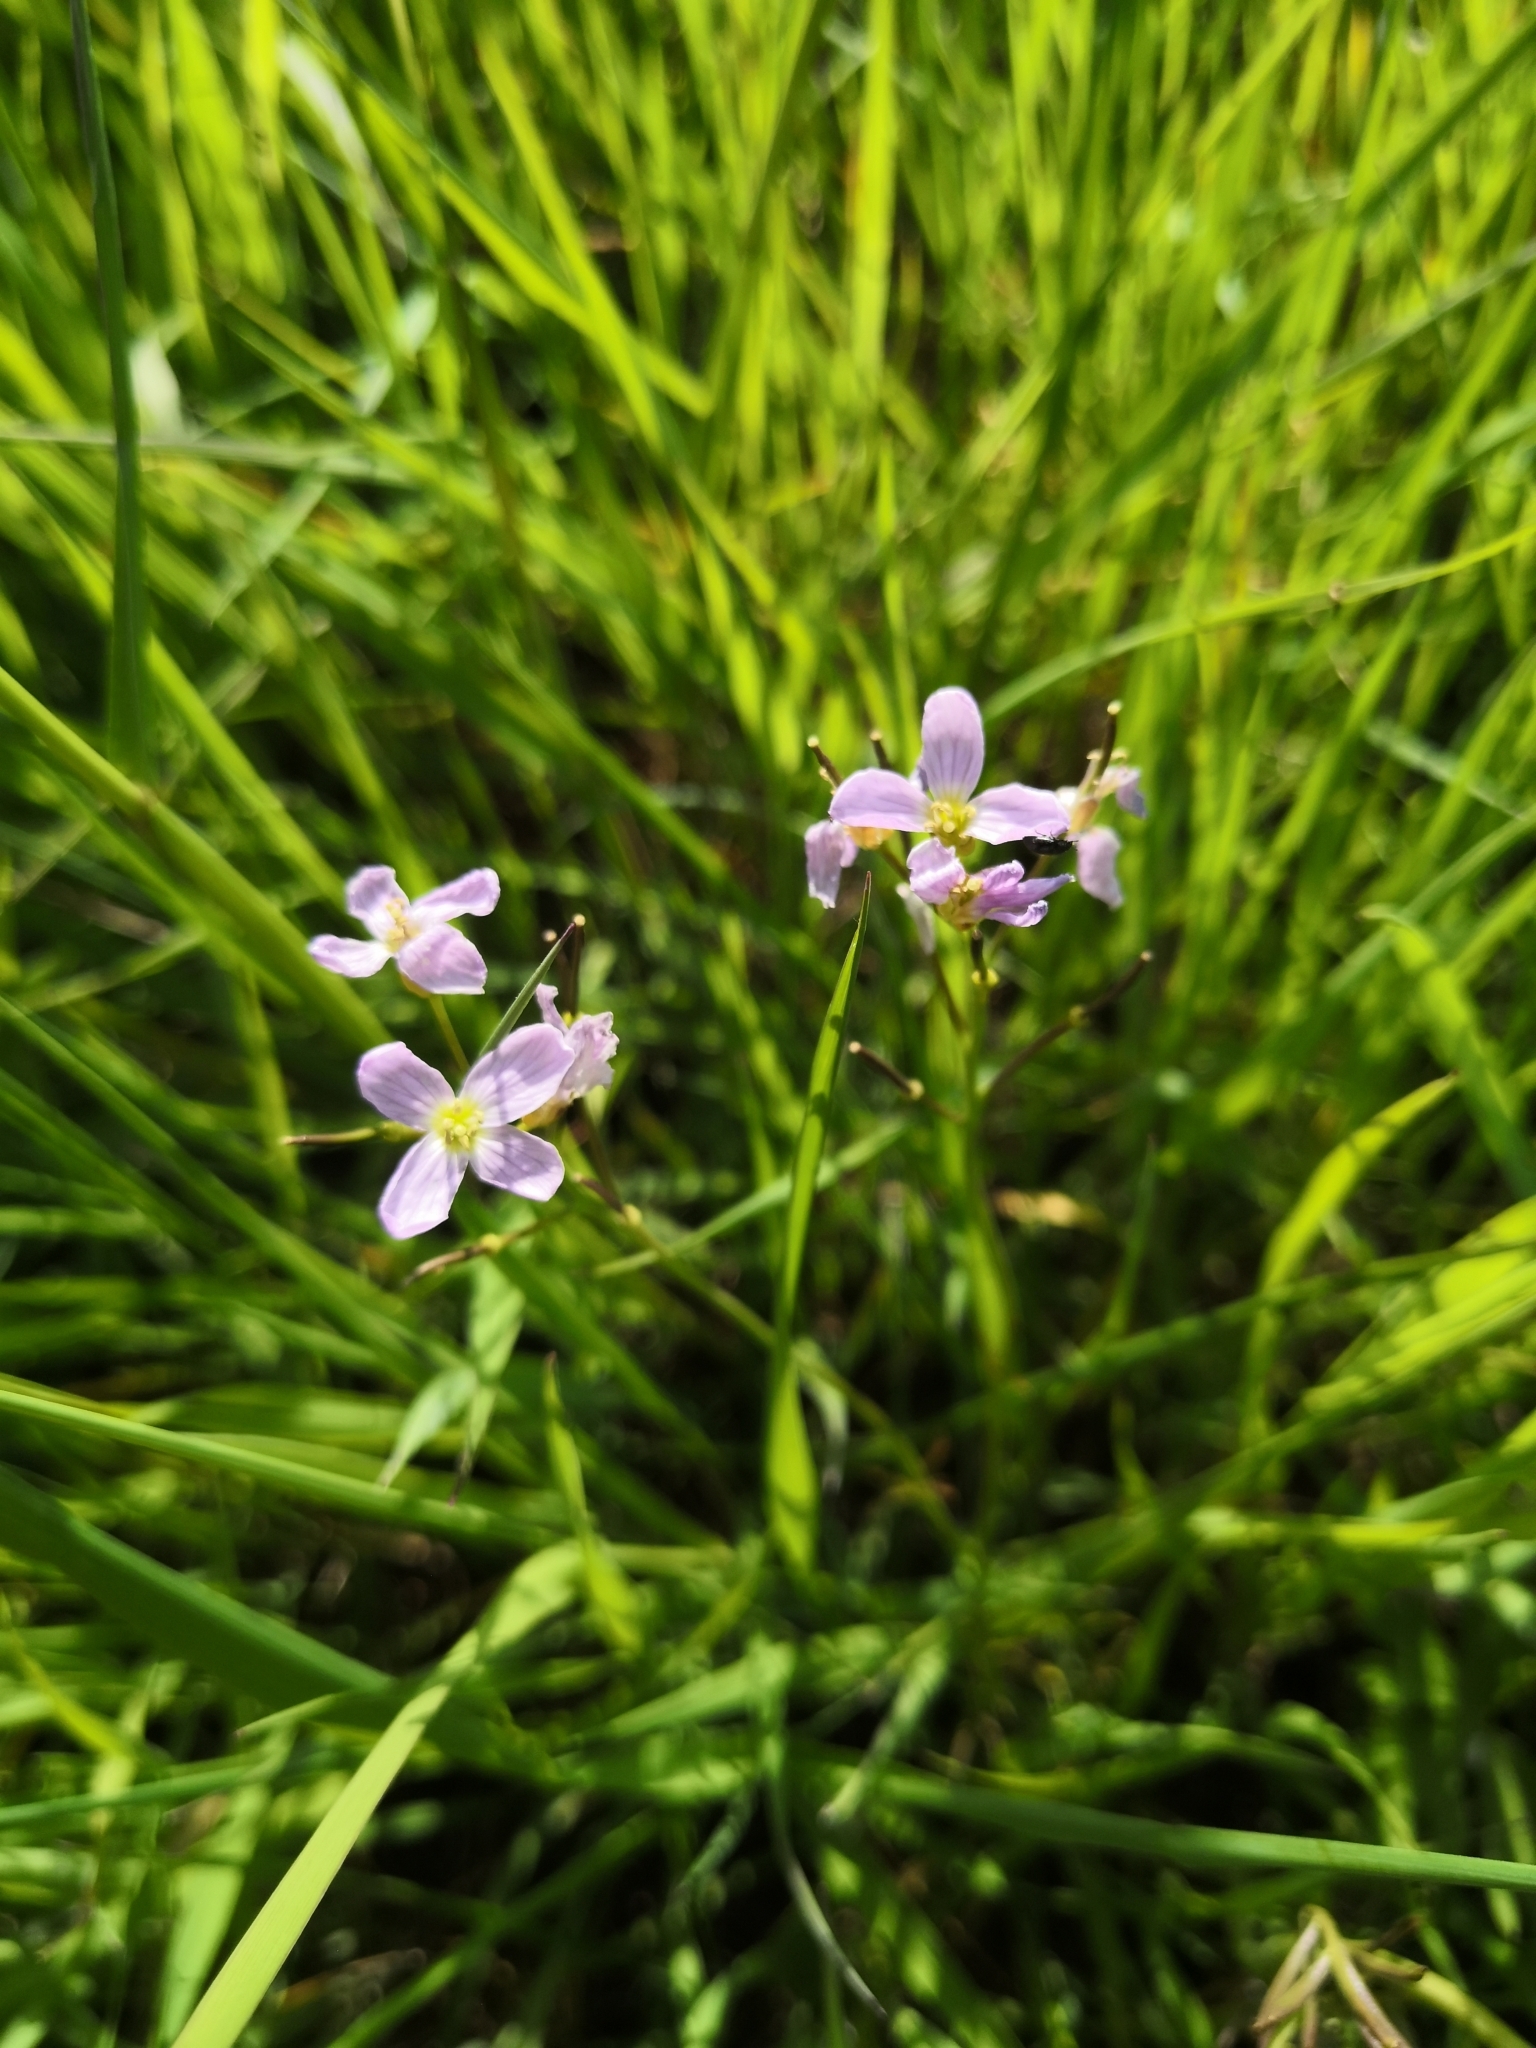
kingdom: Plantae
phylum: Tracheophyta
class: Magnoliopsida
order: Brassicales
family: Brassicaceae
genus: Cardamine
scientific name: Cardamine pratensis
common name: Cuckoo flower
